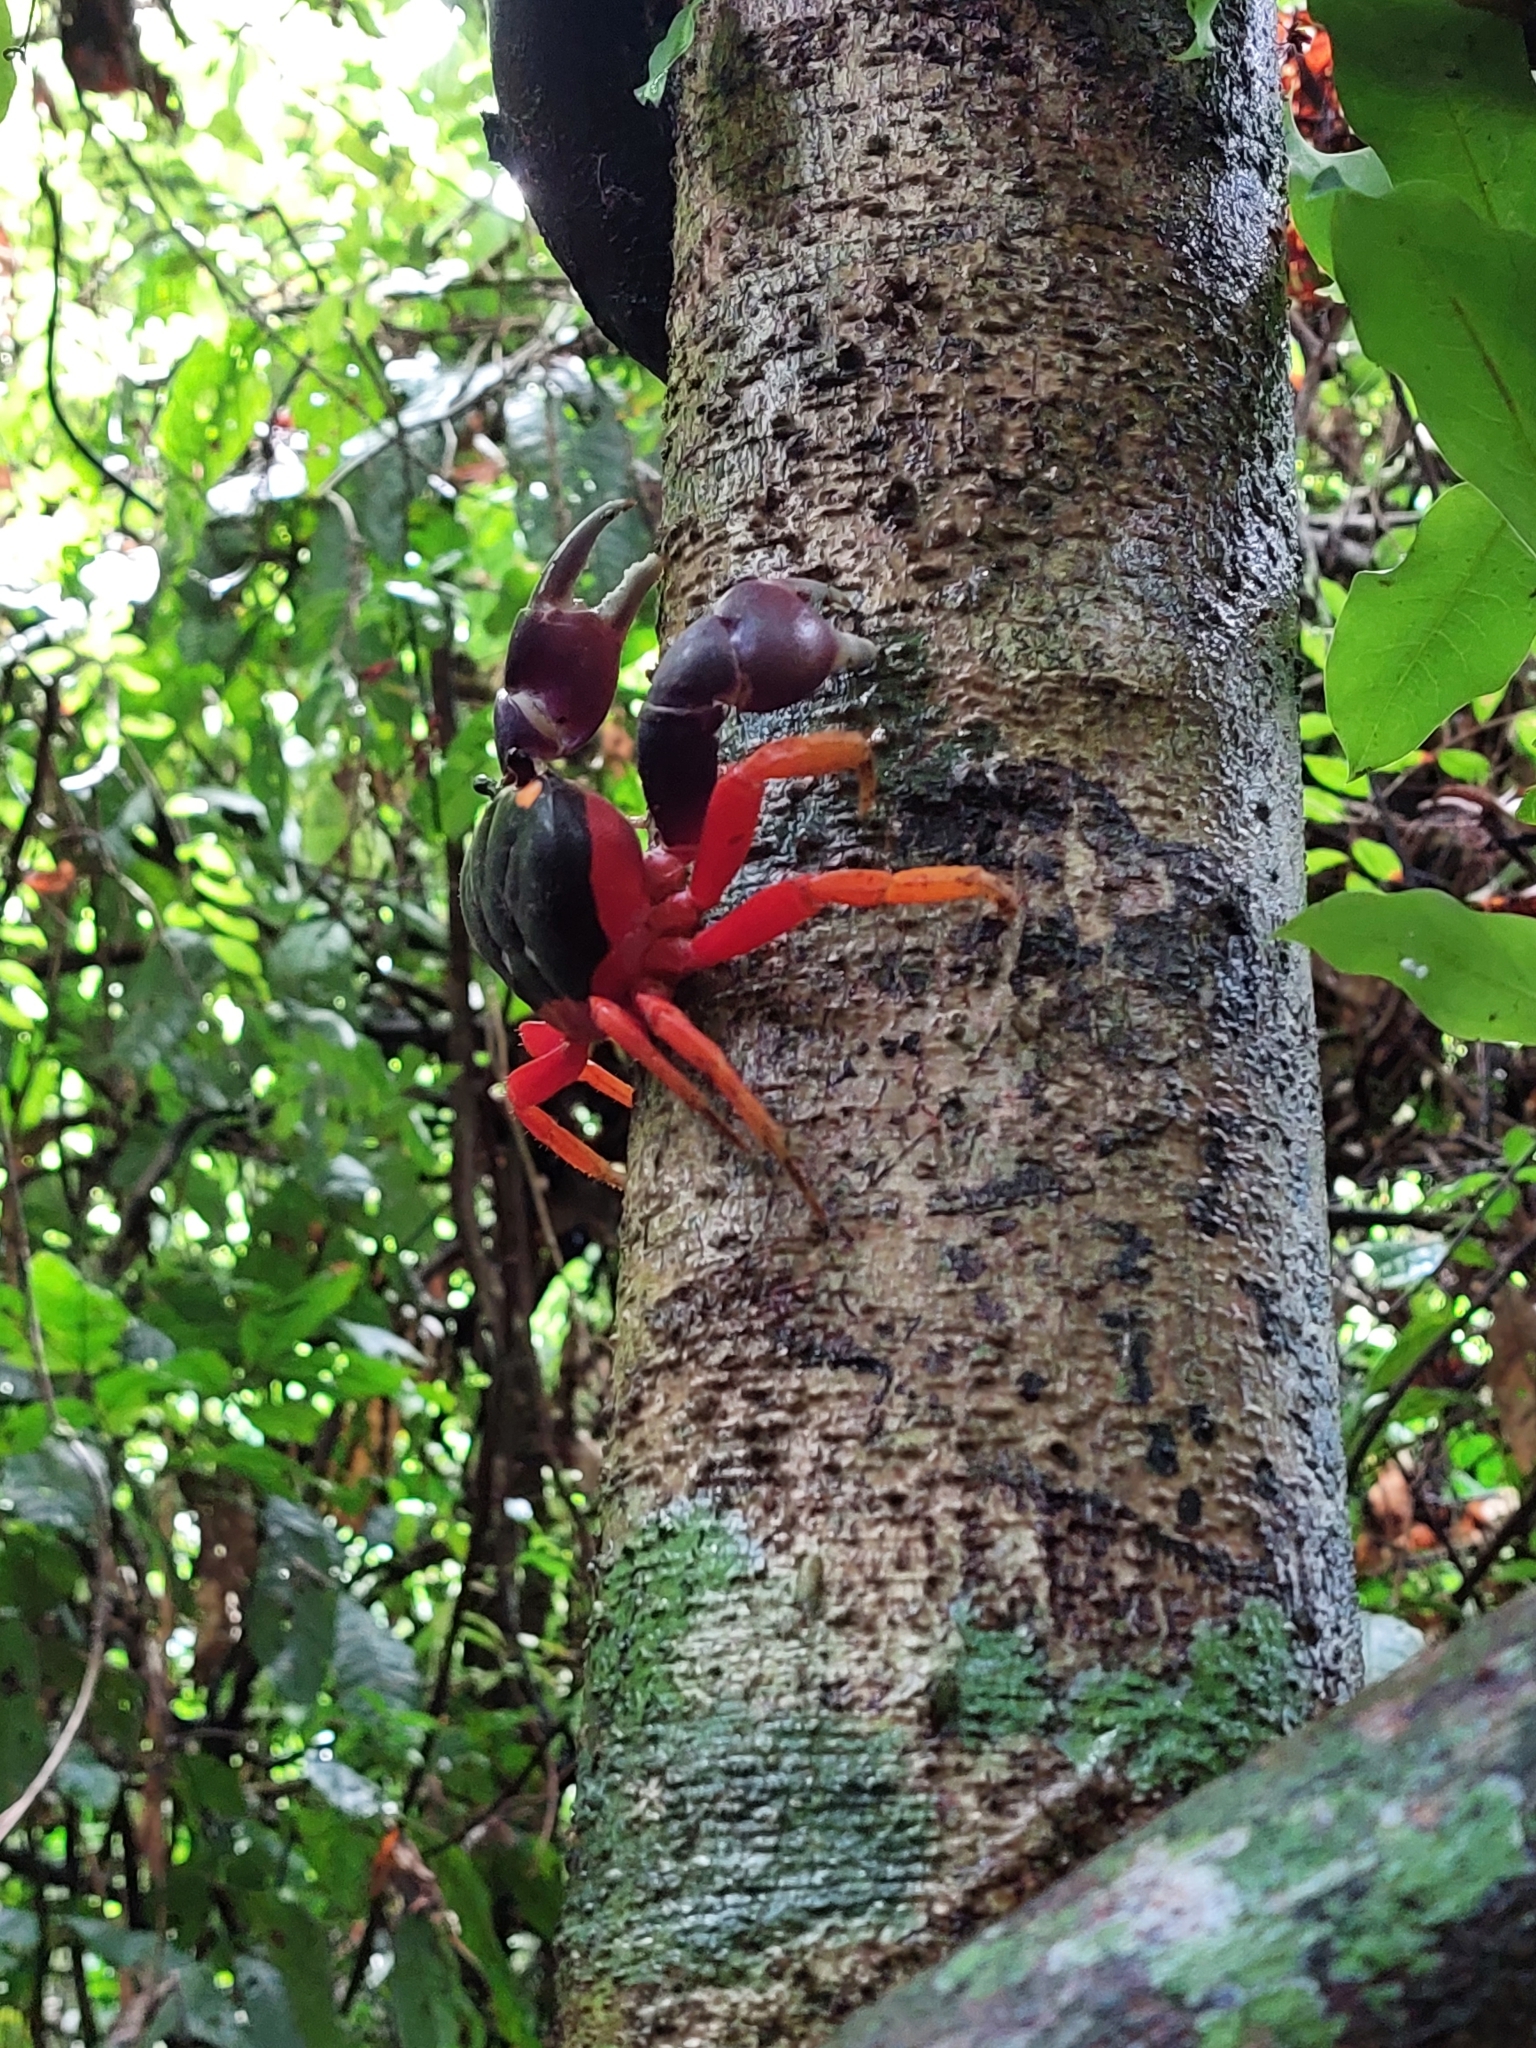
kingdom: Animalia
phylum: Arthropoda
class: Malacostraca
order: Decapoda
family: Gecarcinidae
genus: Gecarcinus
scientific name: Gecarcinus quadratus
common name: Halloween crab
